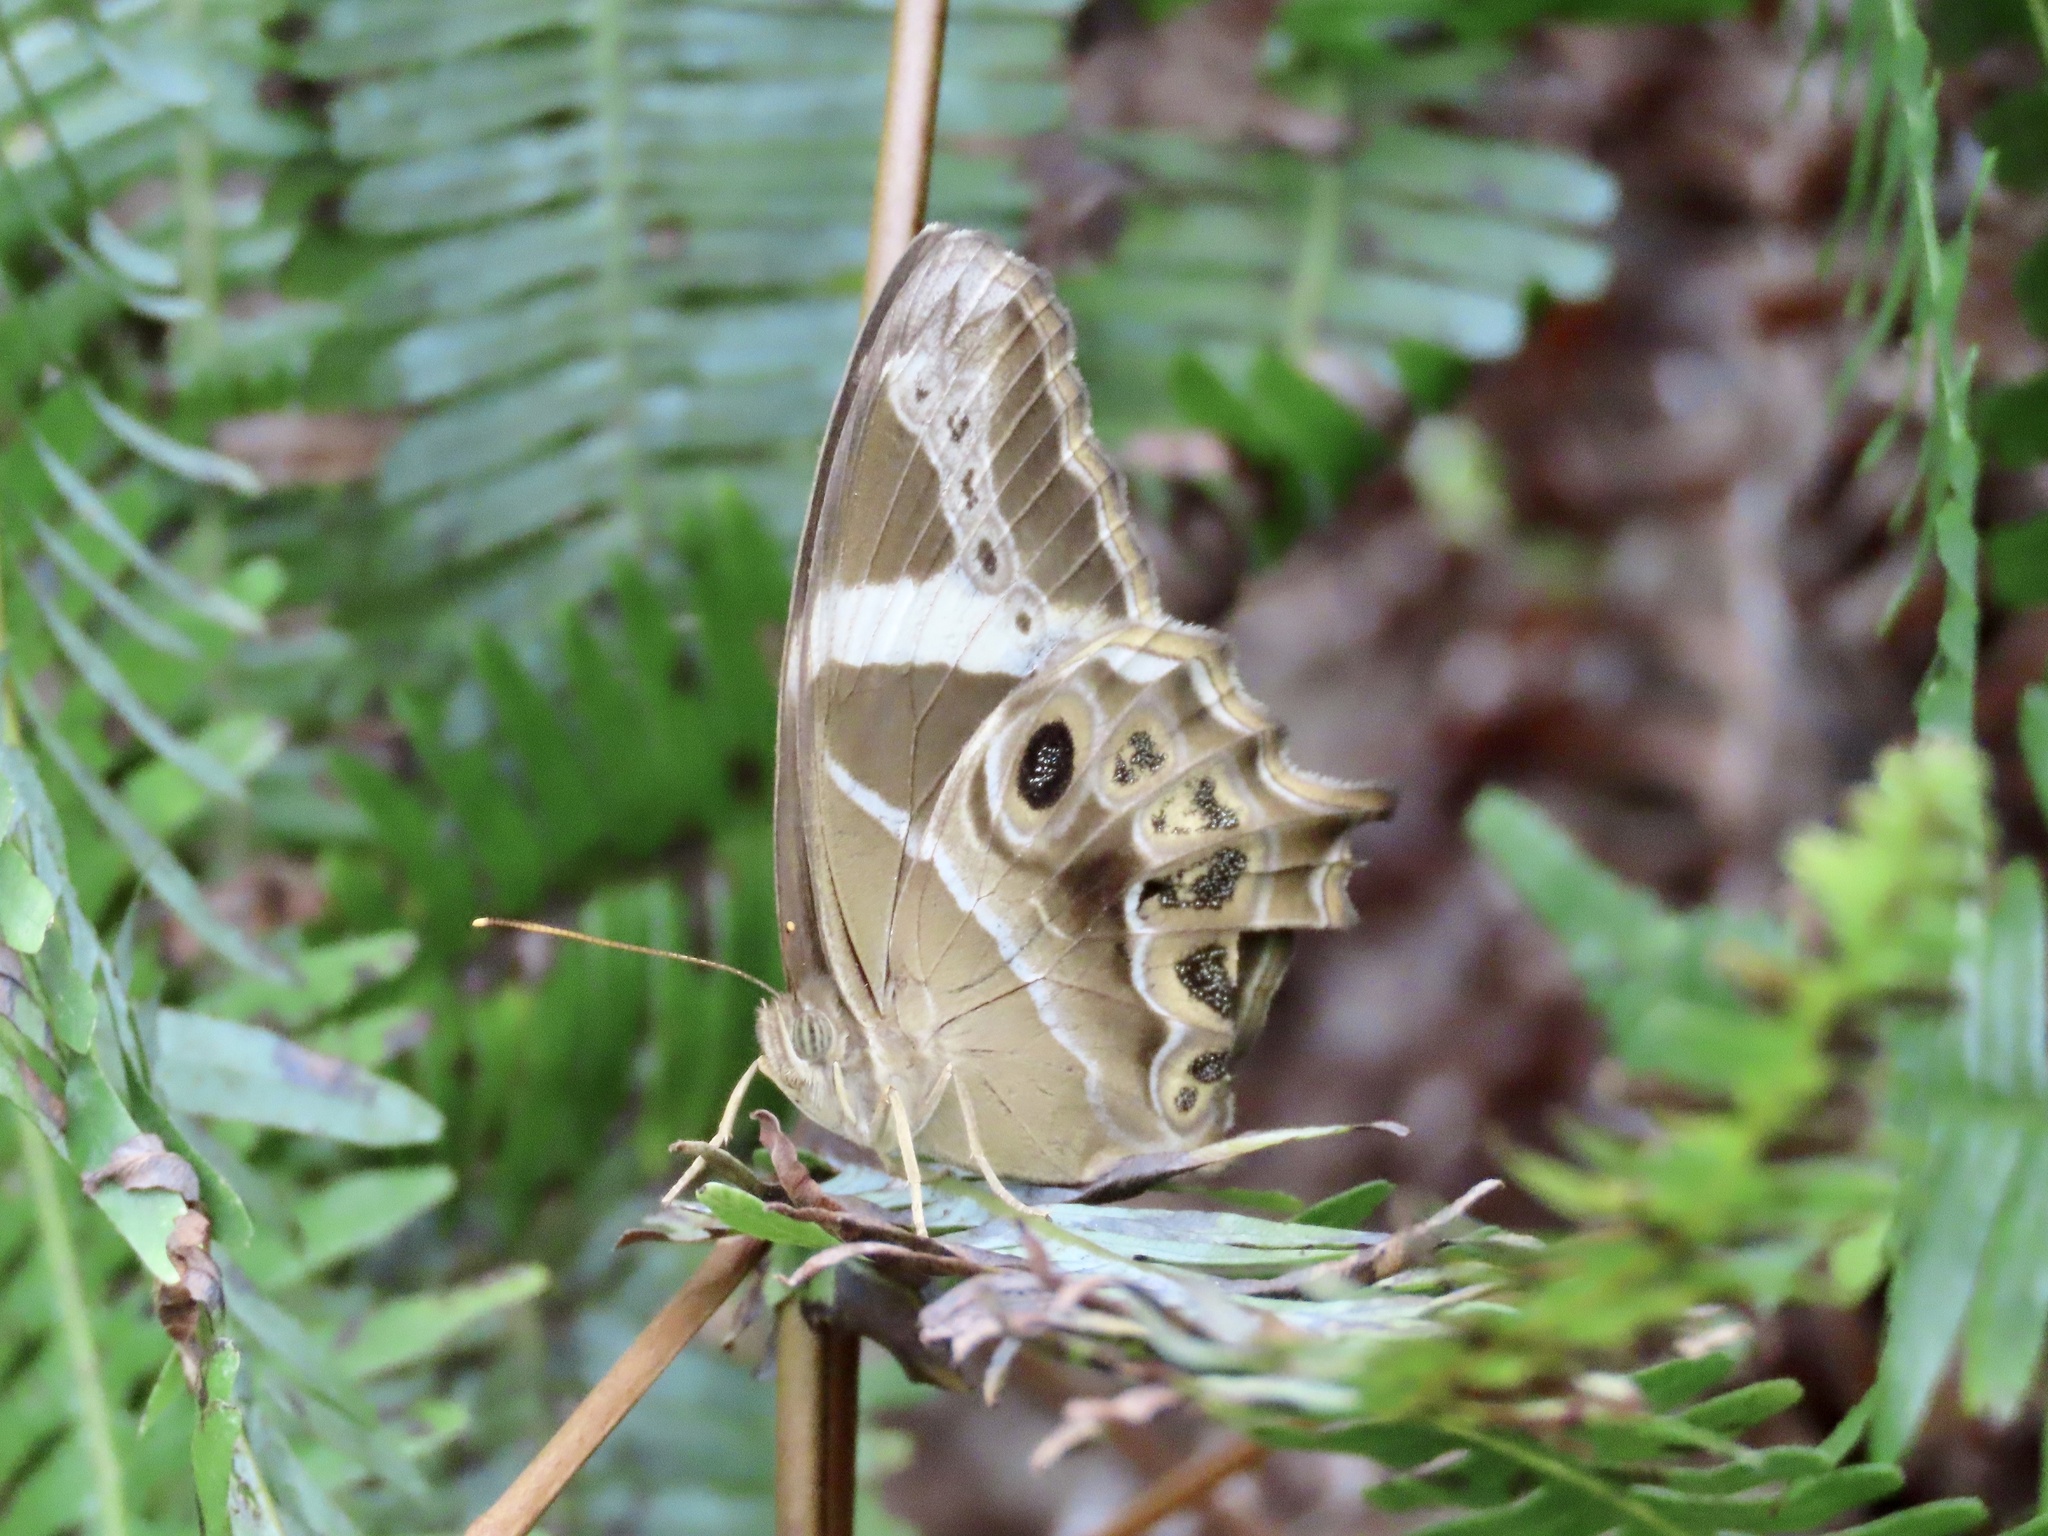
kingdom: Animalia
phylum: Arthropoda
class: Insecta
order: Lepidoptera
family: Nymphalidae
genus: Lethe
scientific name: Lethe europa
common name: Bamboo treebrown
